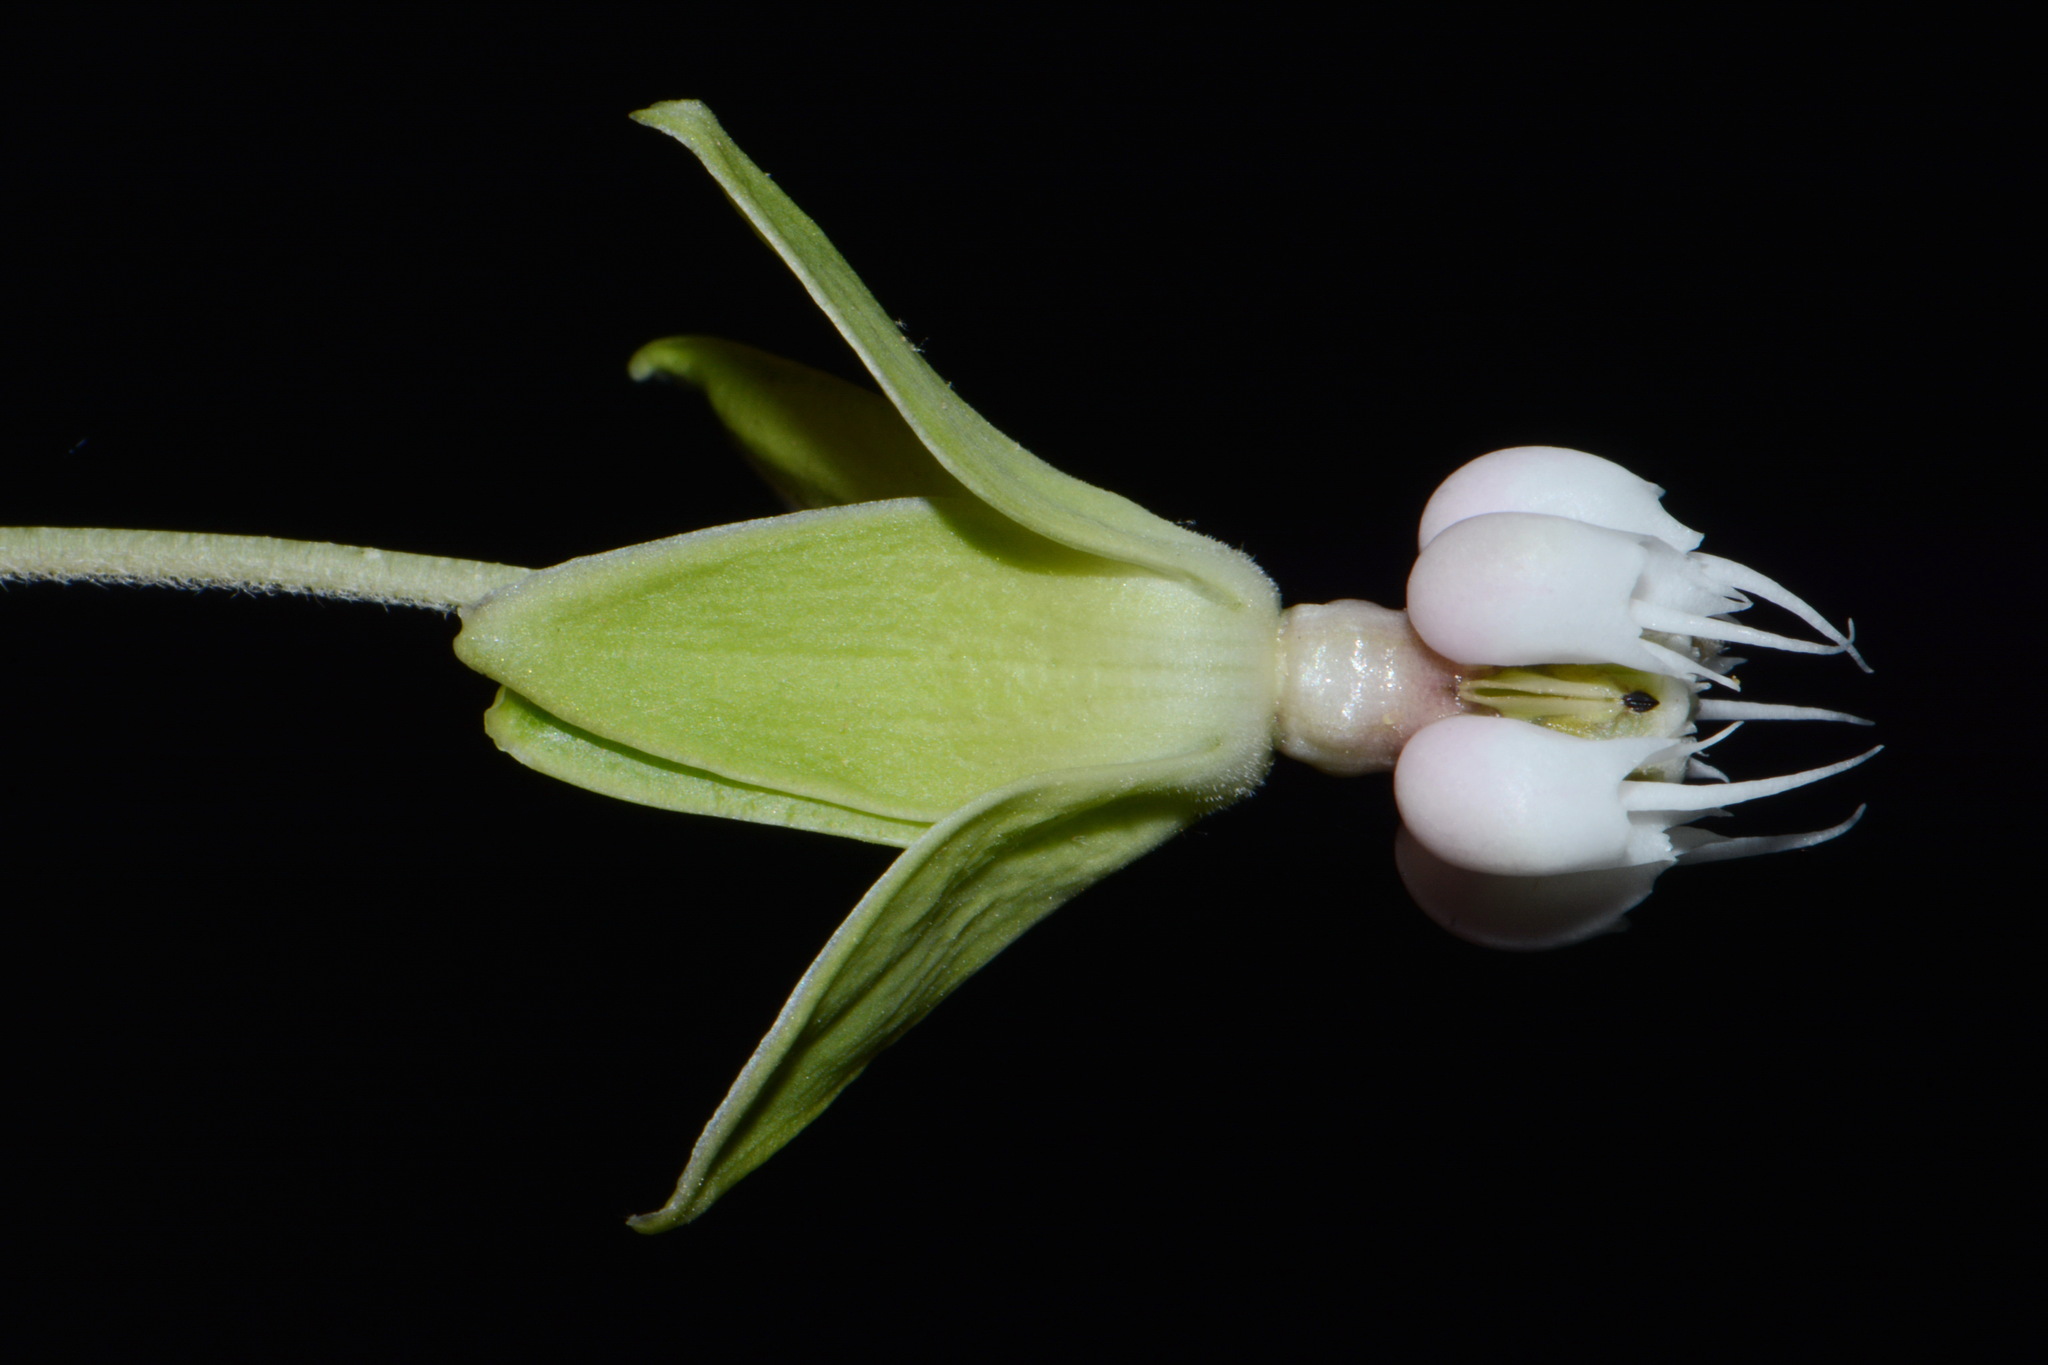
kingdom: Plantae
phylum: Tracheophyta
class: Magnoliopsida
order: Gentianales
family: Apocynaceae
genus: Asclepias
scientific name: Asclepias exaltata
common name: Poke milkweed
